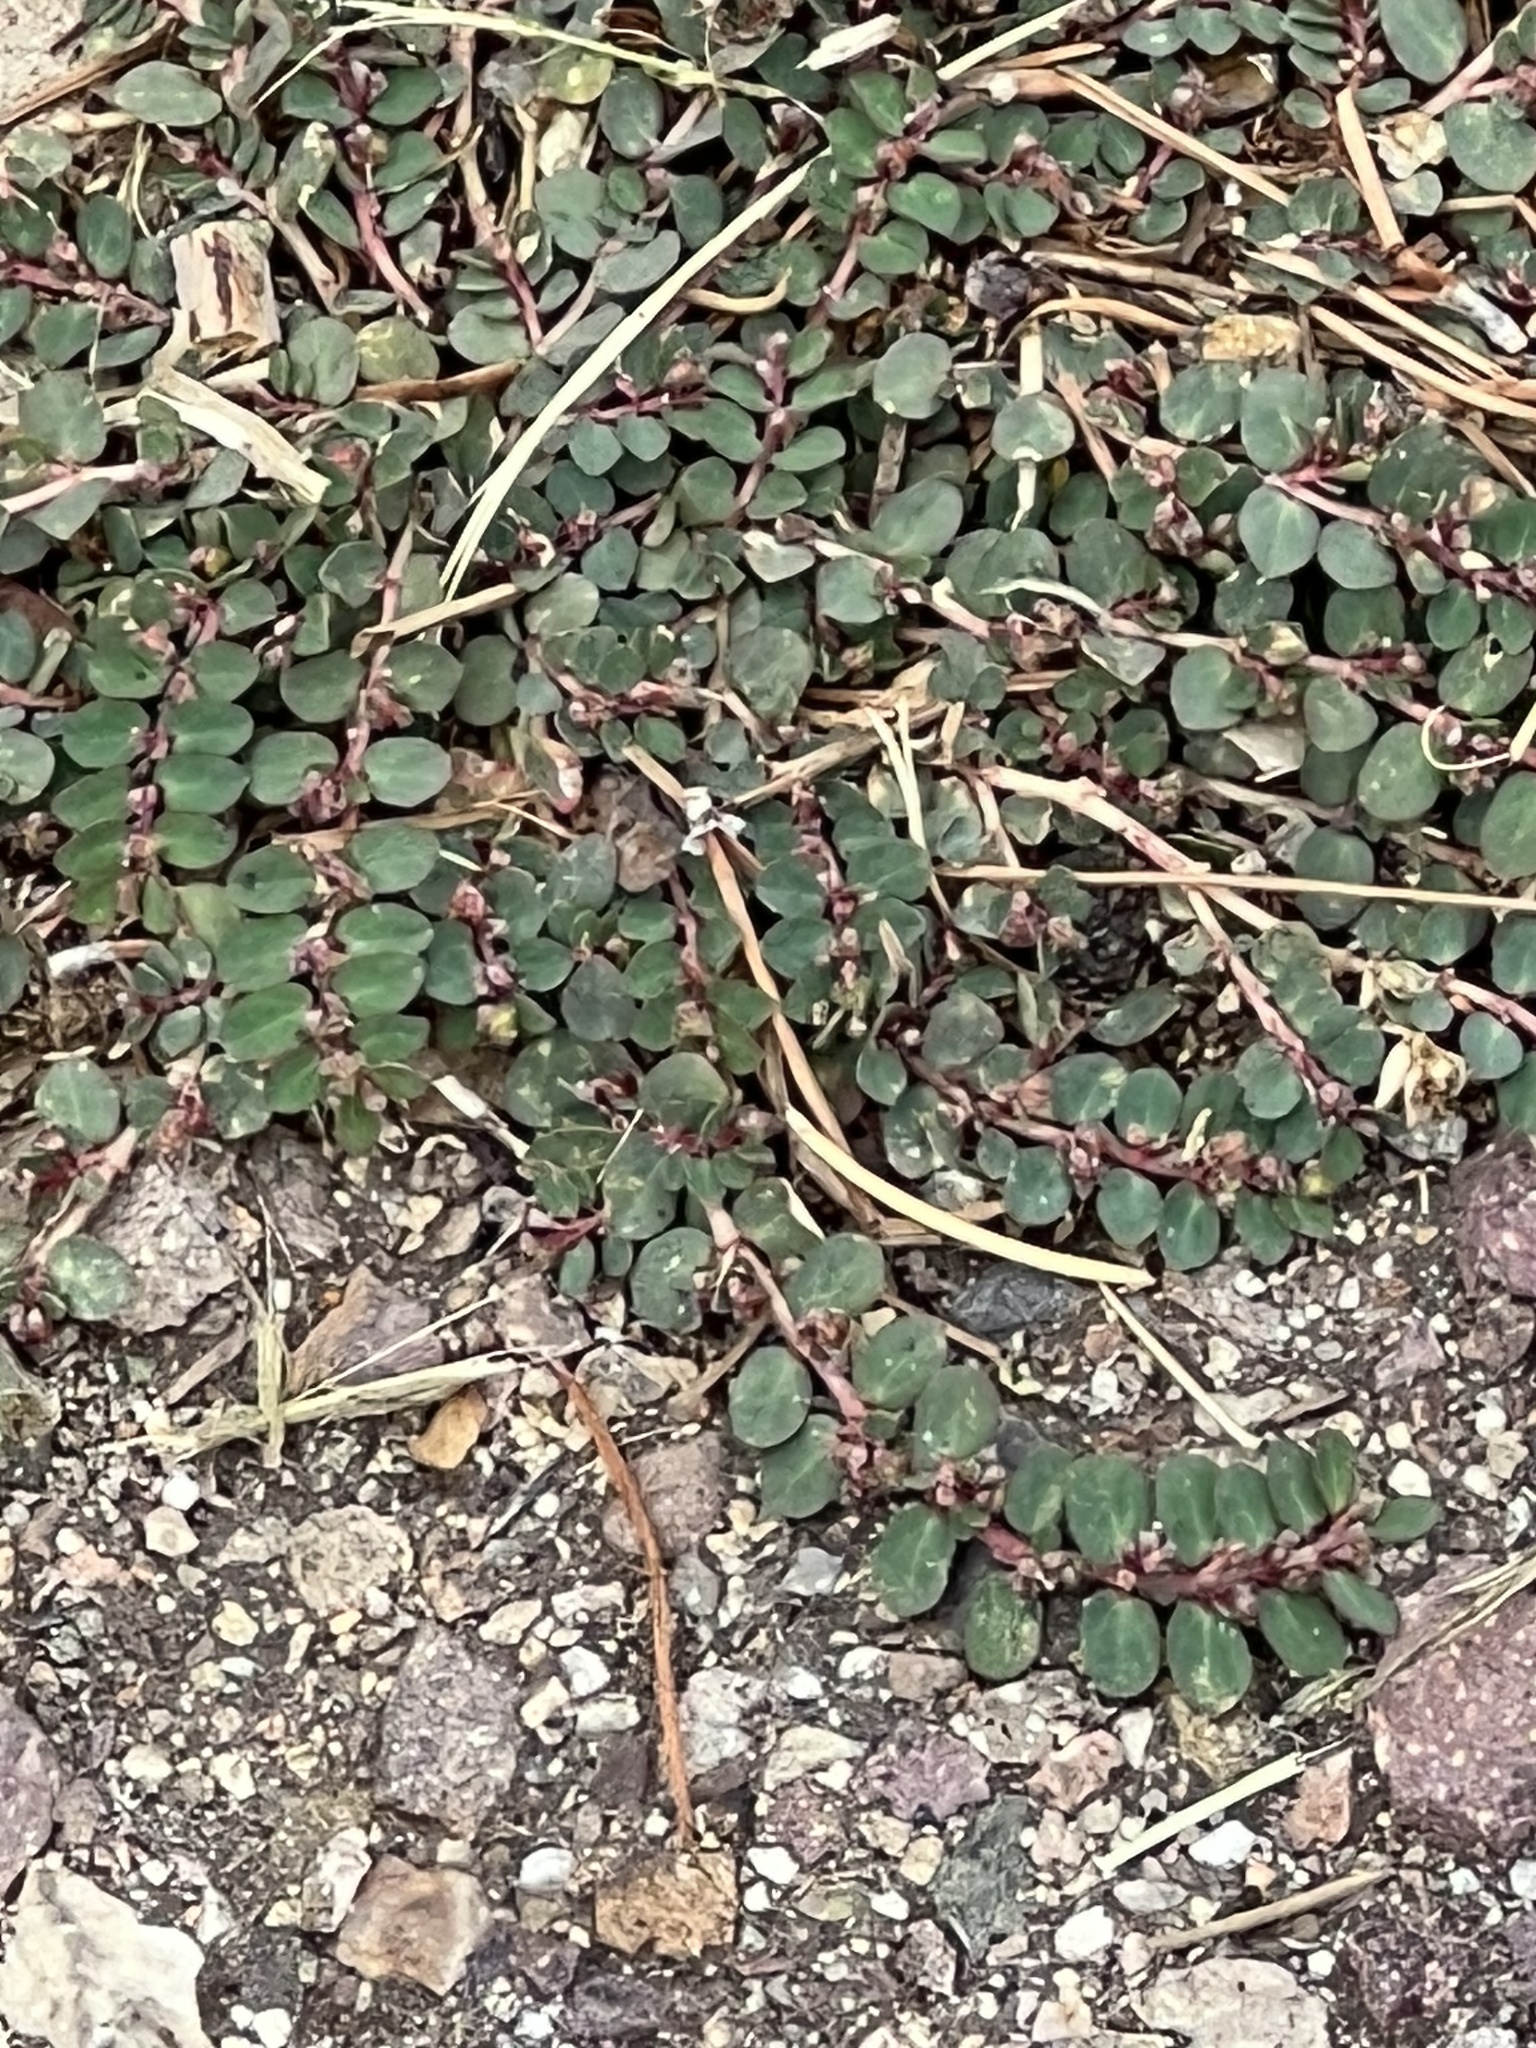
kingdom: Plantae
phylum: Tracheophyta
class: Magnoliopsida
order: Malpighiales
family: Euphorbiaceae
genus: Euphorbia
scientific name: Euphorbia prostrata
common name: Prostrate sandmat
